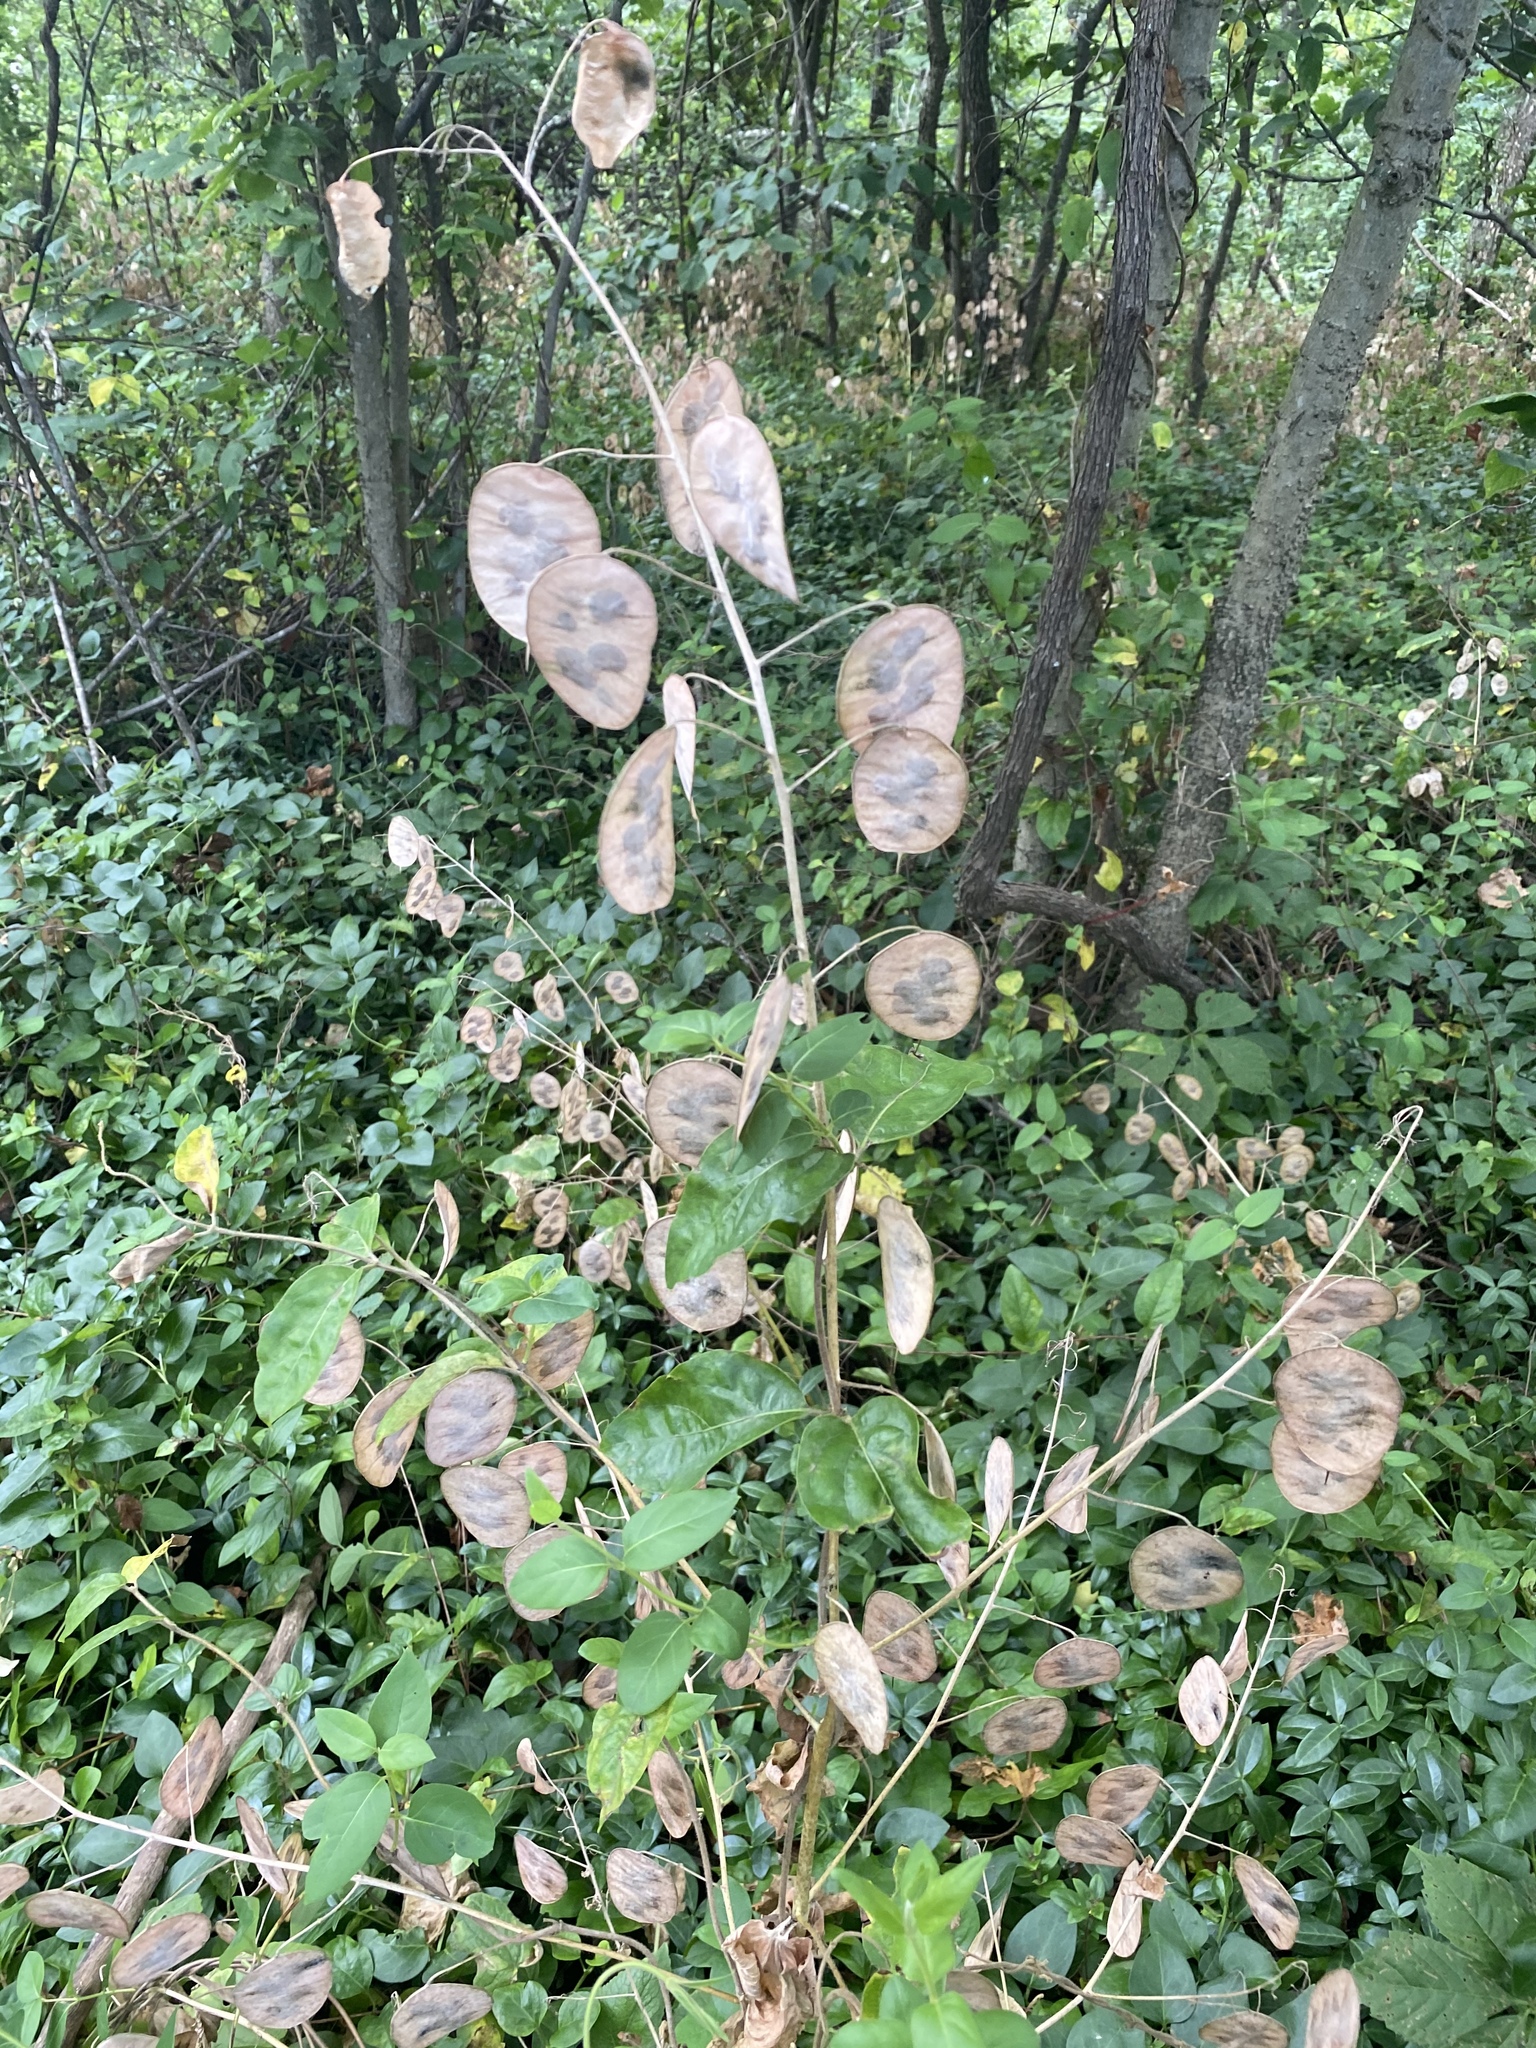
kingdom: Plantae
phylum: Tracheophyta
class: Magnoliopsida
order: Brassicales
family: Brassicaceae
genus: Lunaria
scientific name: Lunaria annua
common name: Honesty
